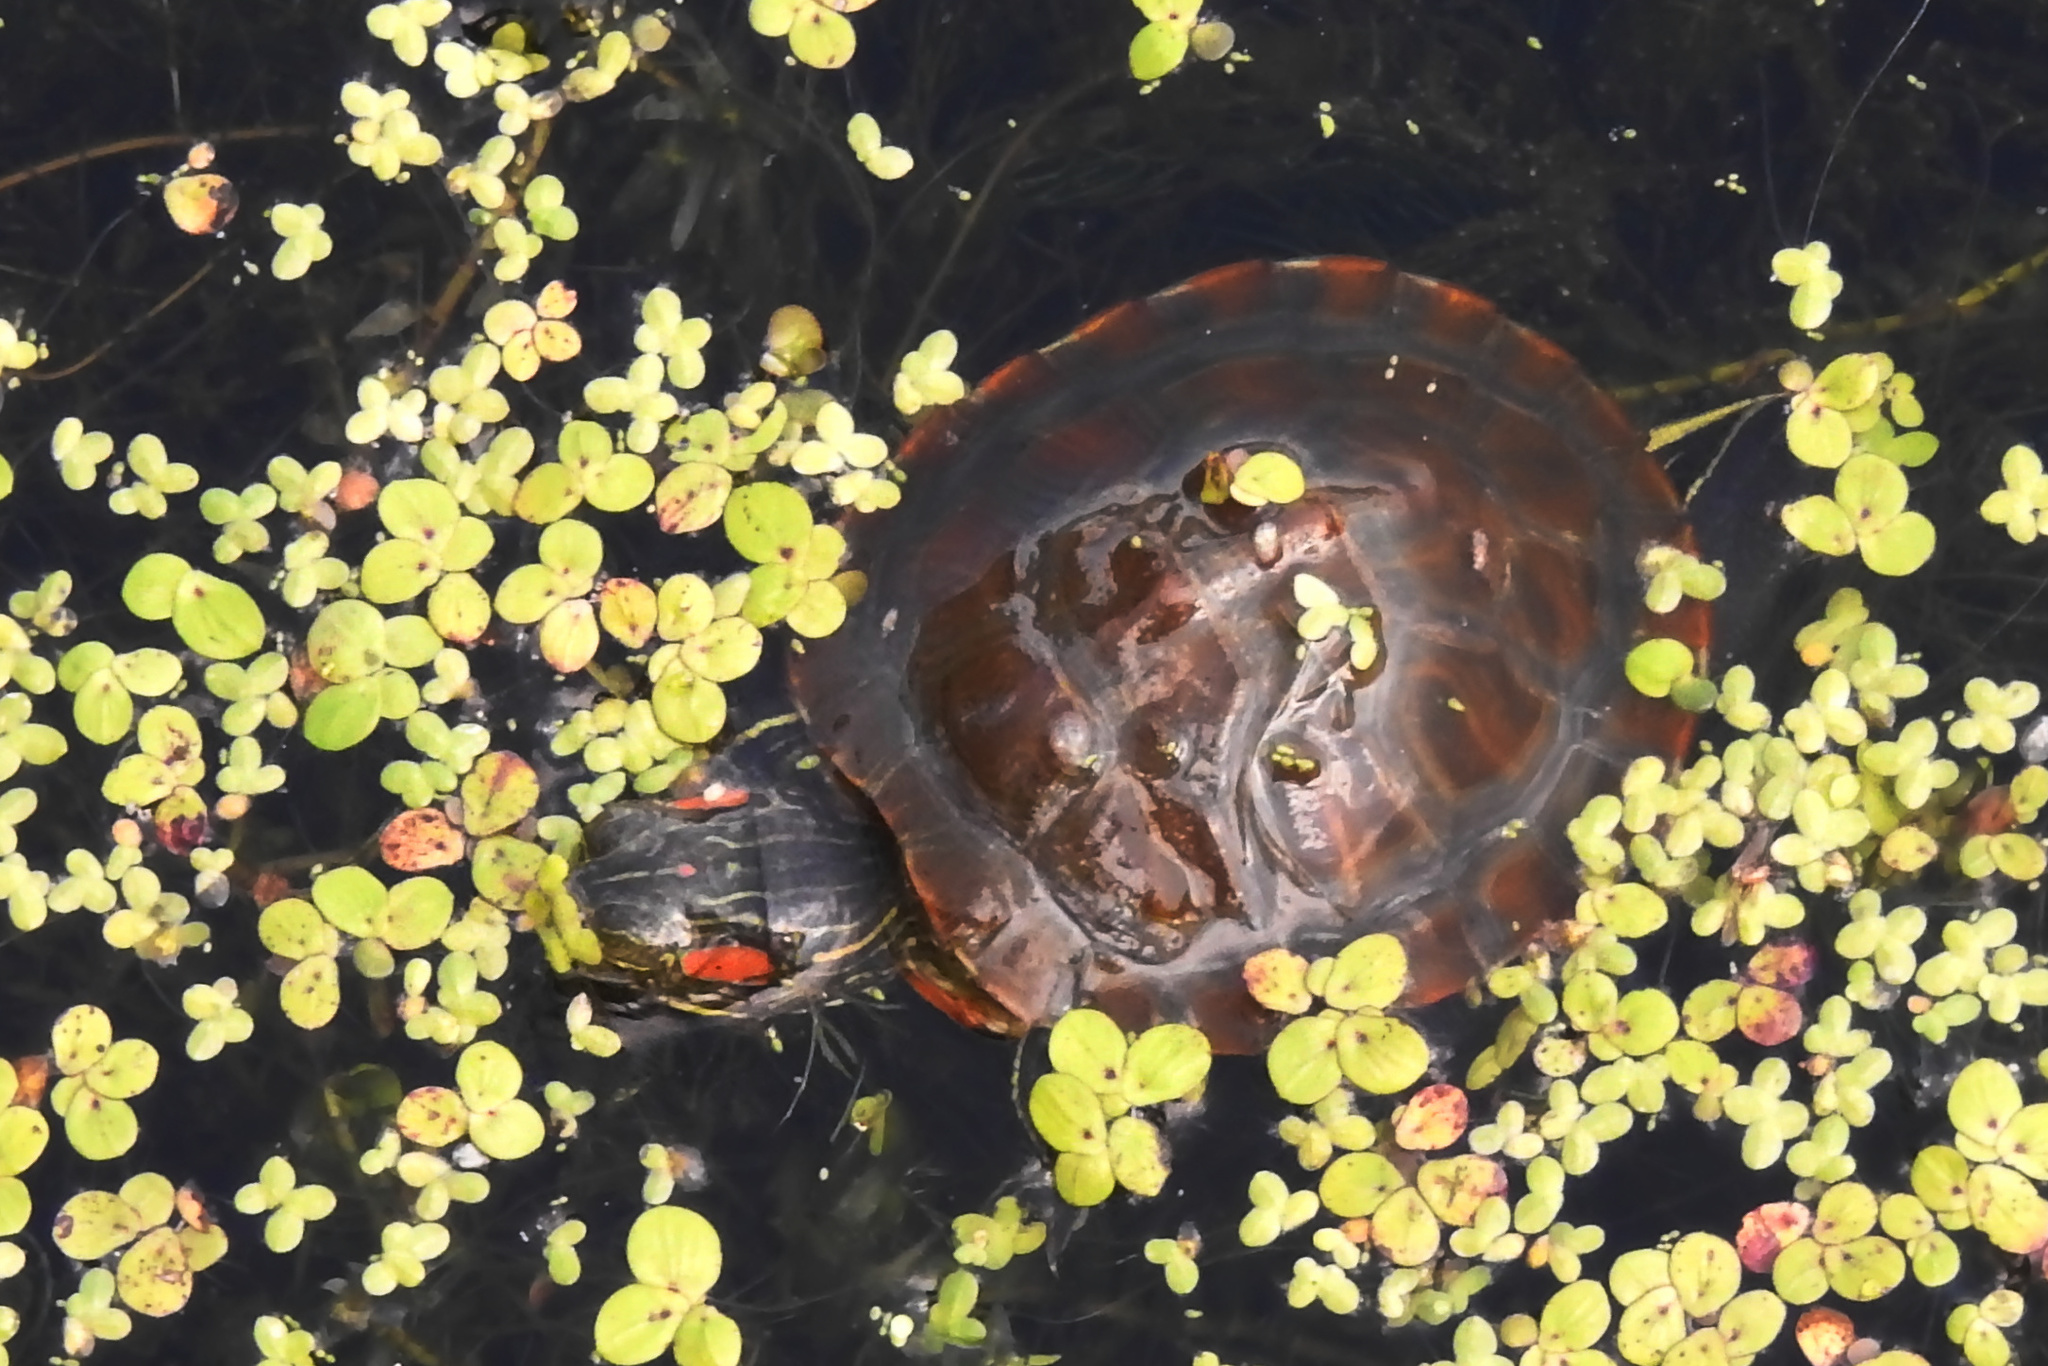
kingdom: Animalia
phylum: Chordata
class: Testudines
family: Emydidae
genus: Trachemys
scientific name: Trachemys scripta
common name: Slider
